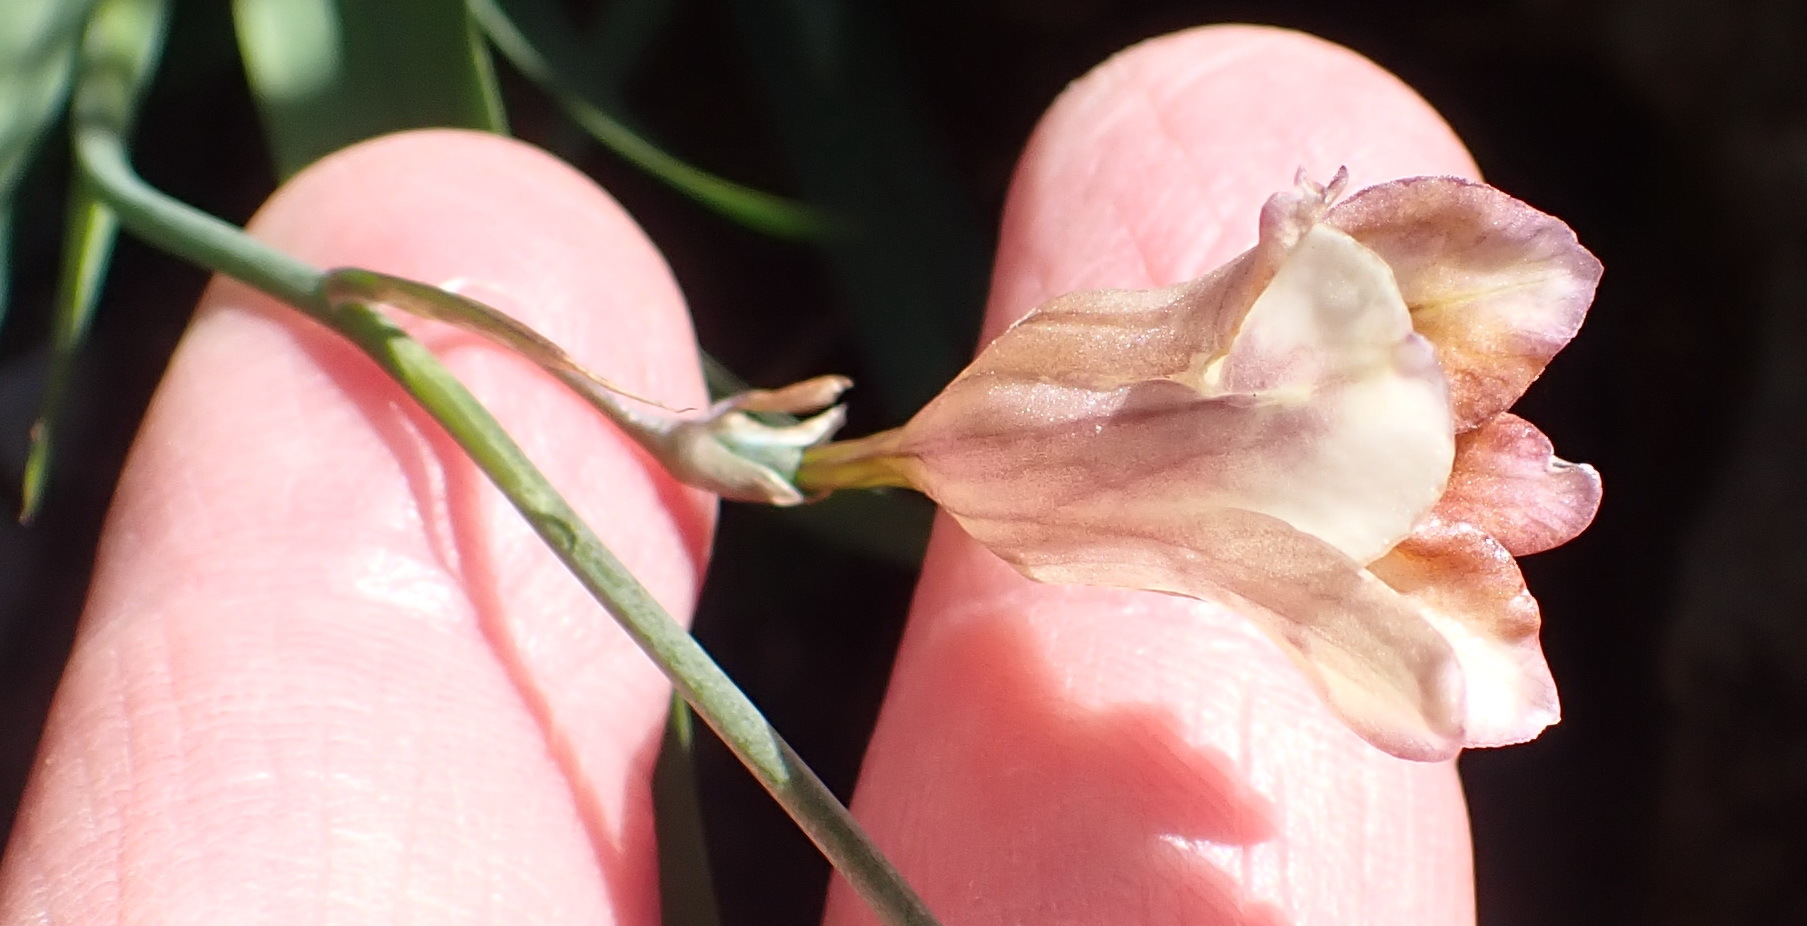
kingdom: Plantae
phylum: Tracheophyta
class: Liliopsida
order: Asparagales
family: Iridaceae
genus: Freesia
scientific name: Freesia refracta
